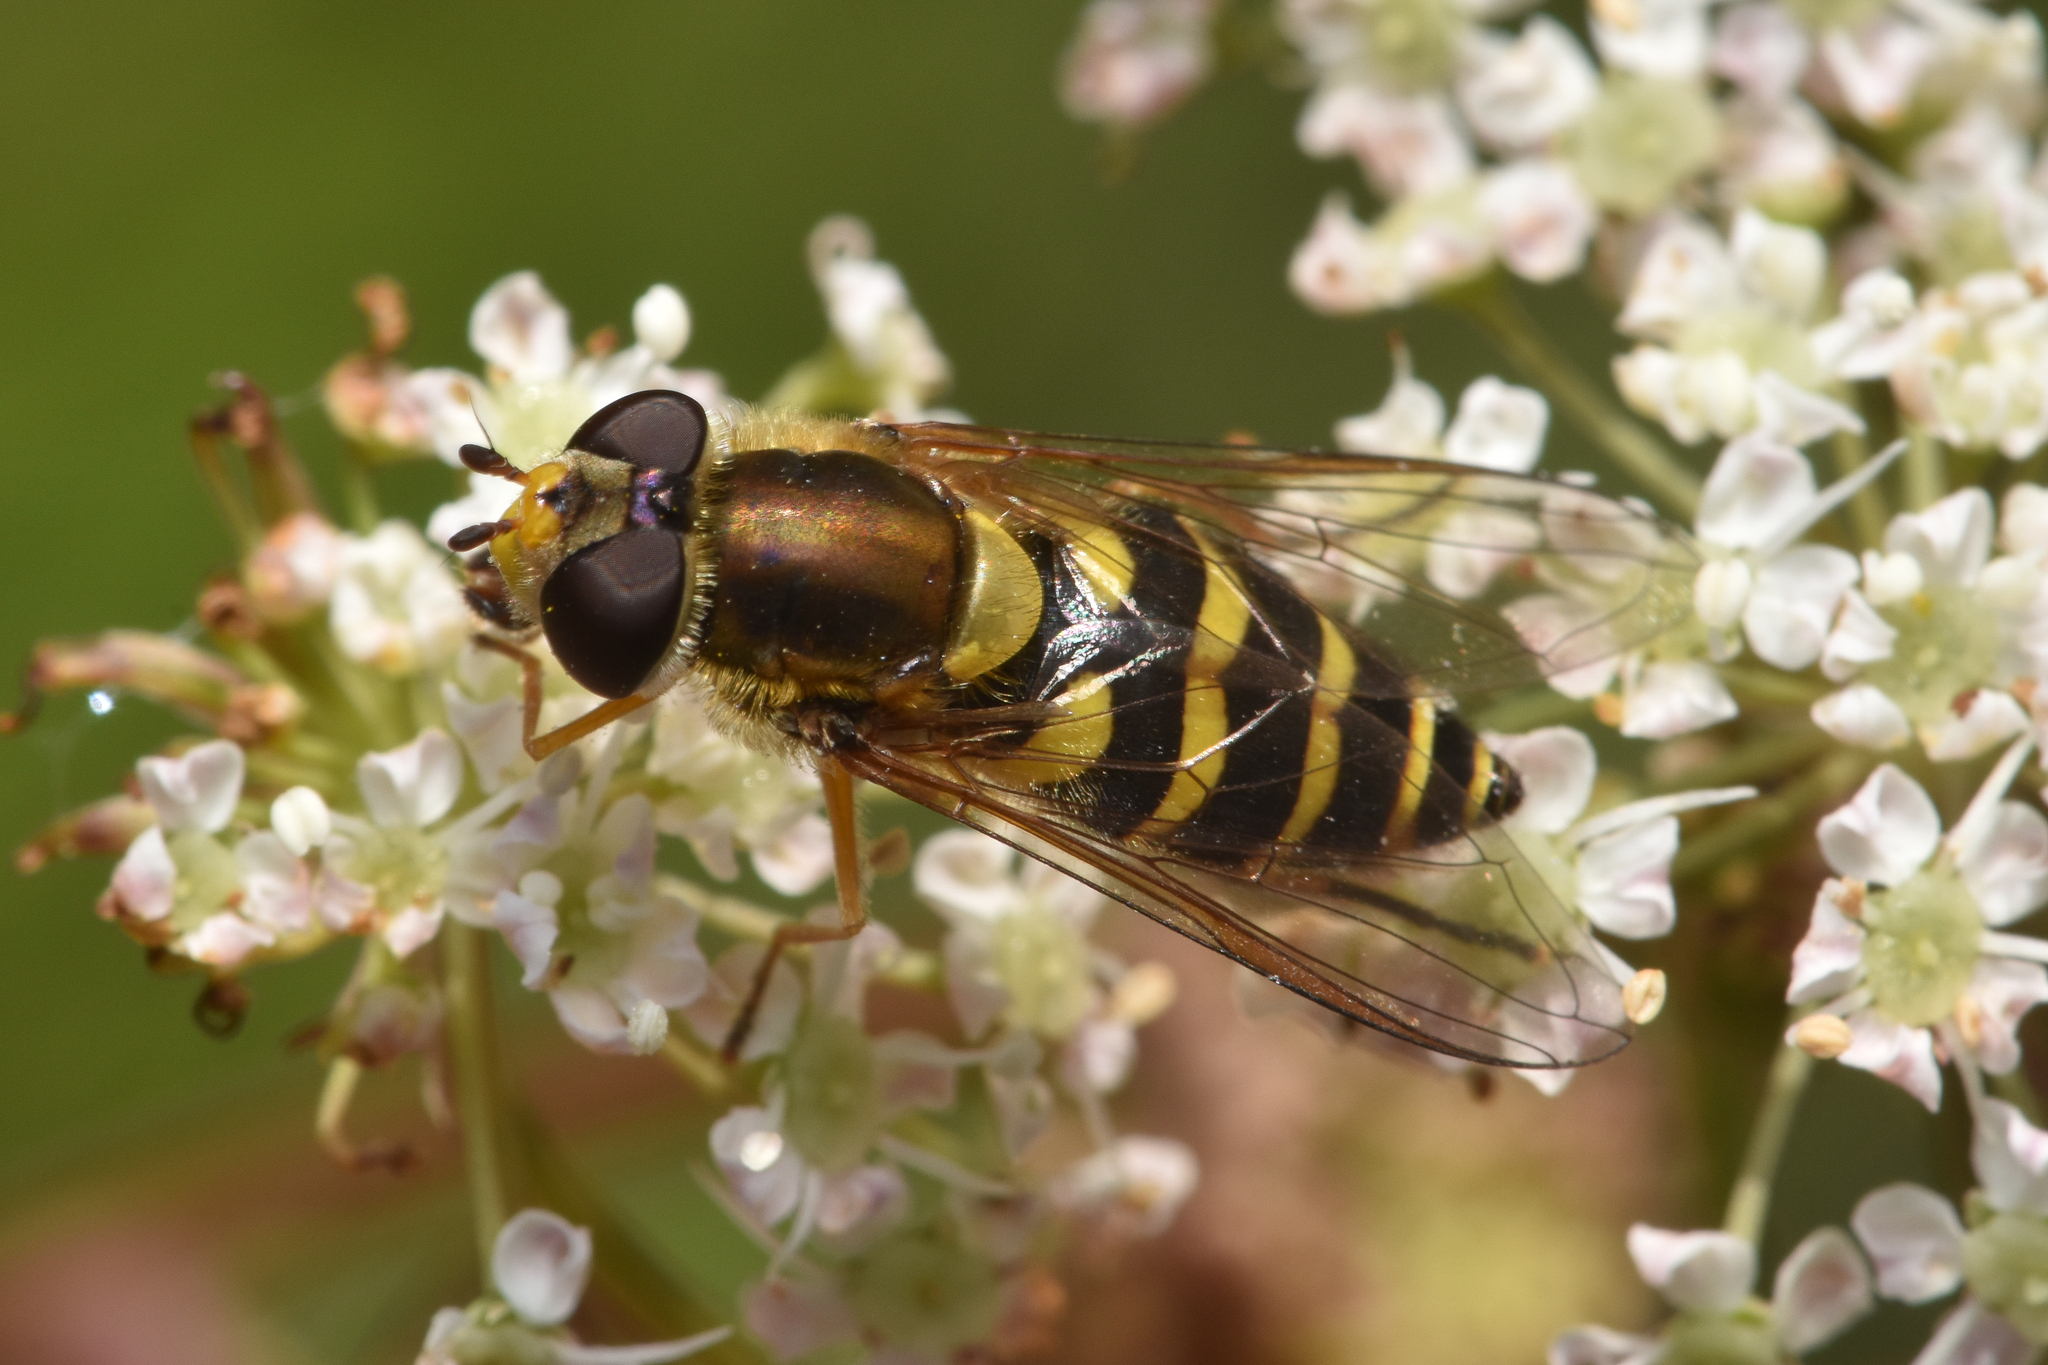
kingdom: Animalia
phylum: Arthropoda
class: Insecta
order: Diptera
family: Syrphidae
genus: Syrphus
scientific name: Syrphus
